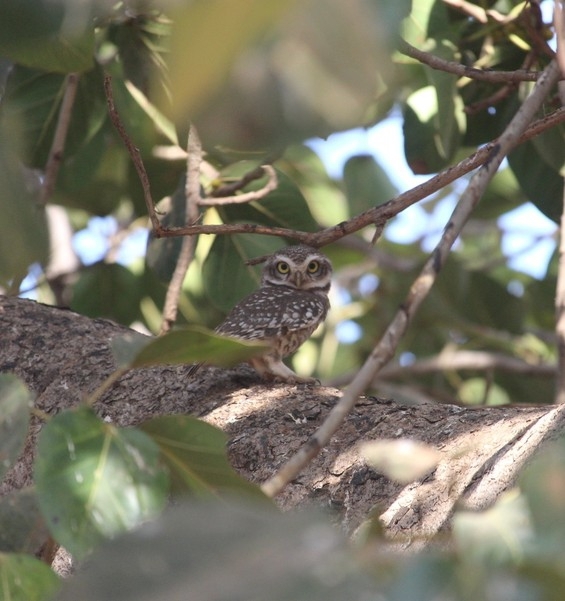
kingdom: Animalia
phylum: Chordata
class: Aves
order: Strigiformes
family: Strigidae
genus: Athene
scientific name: Athene brama
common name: Spotted owlet
